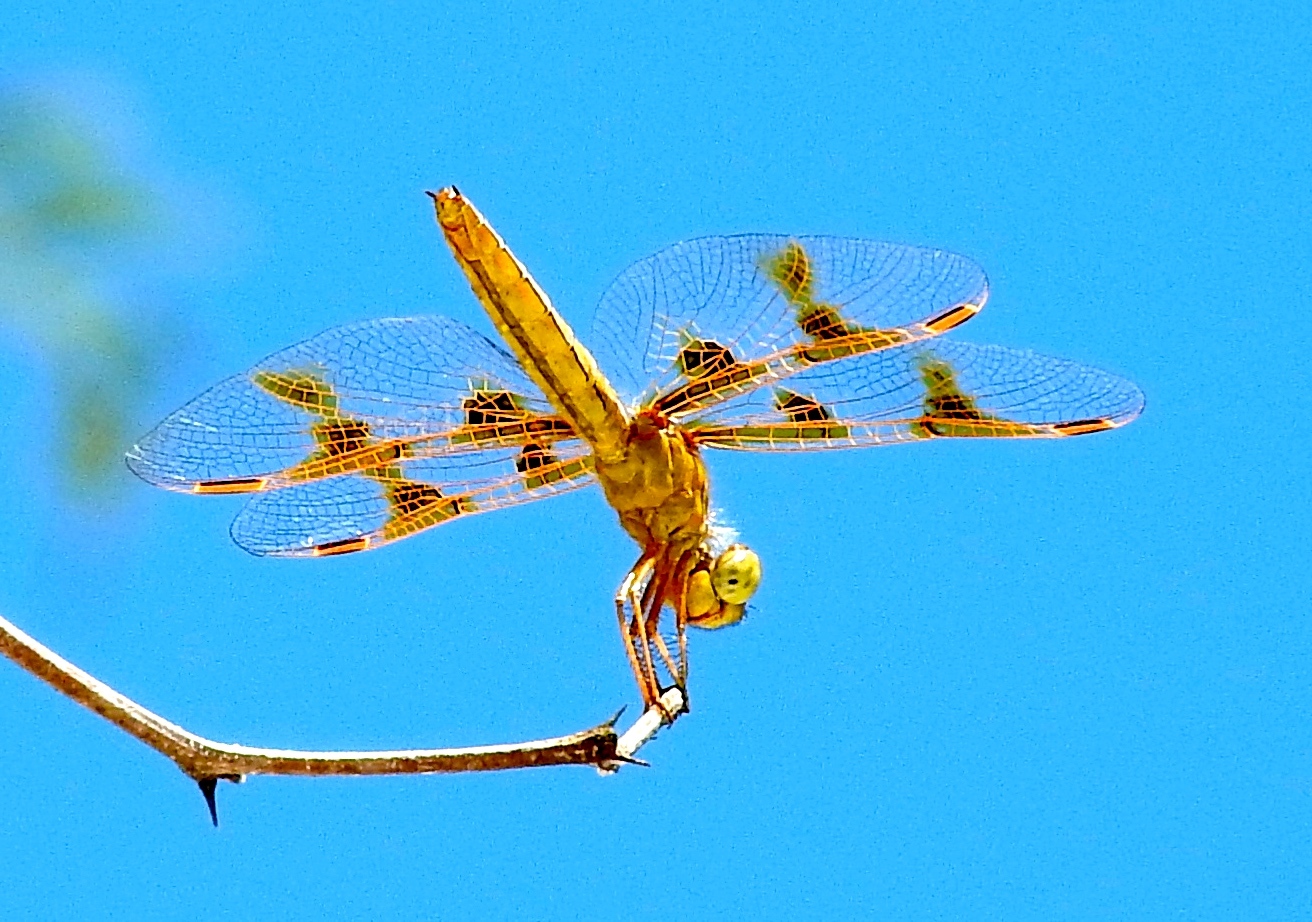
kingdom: Animalia
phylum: Arthropoda
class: Insecta
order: Odonata
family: Libellulidae
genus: Perithemis
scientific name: Perithemis intensa
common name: Mexican amberwing
